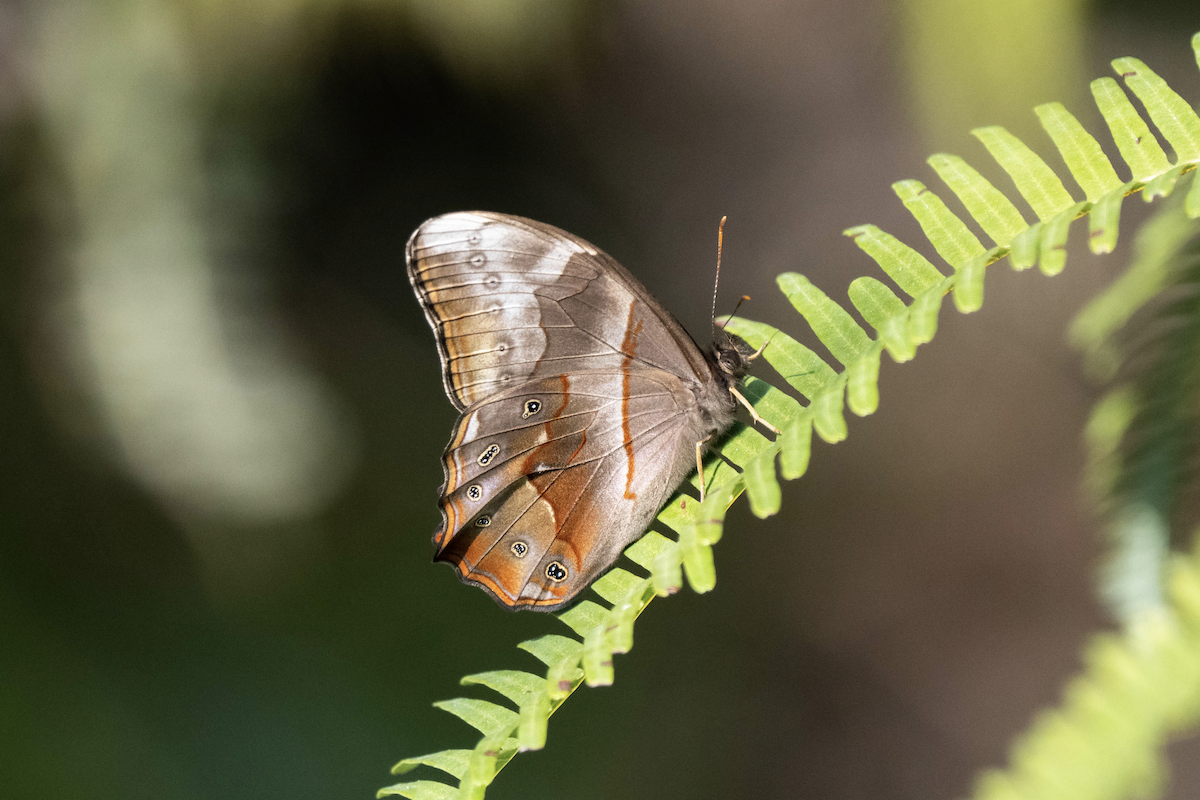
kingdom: Animalia
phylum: Arthropoda
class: Insecta
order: Lepidoptera
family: Nymphalidae
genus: Lethe
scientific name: Lethe chandica
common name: Angled red forester
